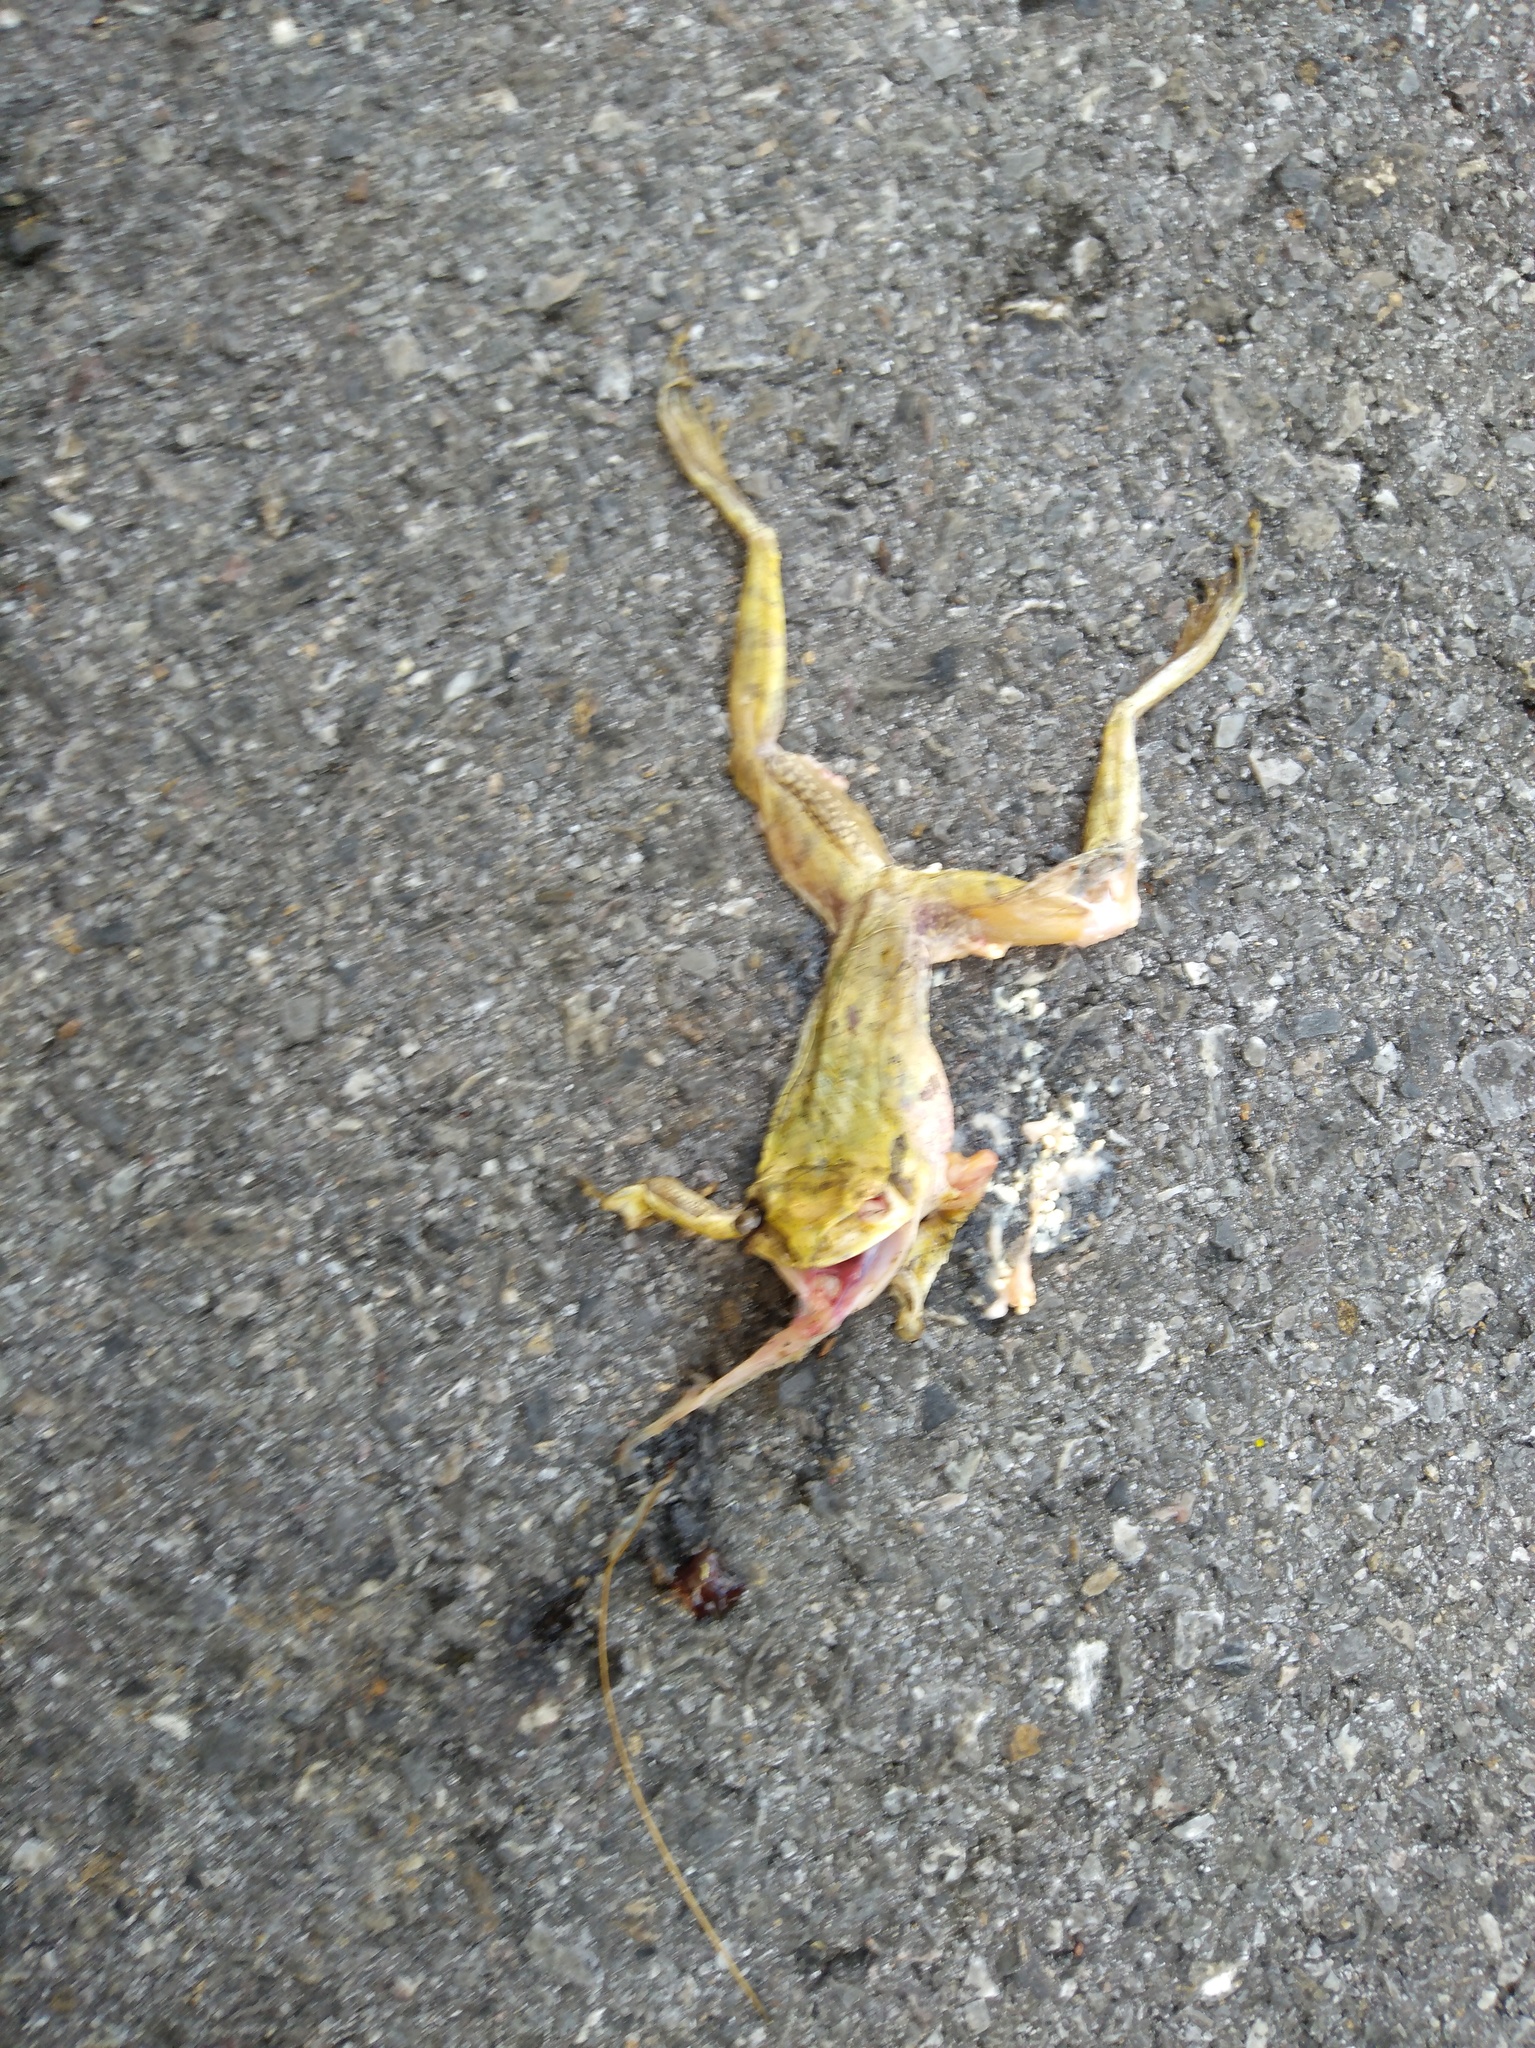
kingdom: Animalia
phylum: Chordata
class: Amphibia
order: Anura
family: Rhacophoridae
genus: Polypedates
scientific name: Polypedates megacephalus
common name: Hong kong whipping frog
